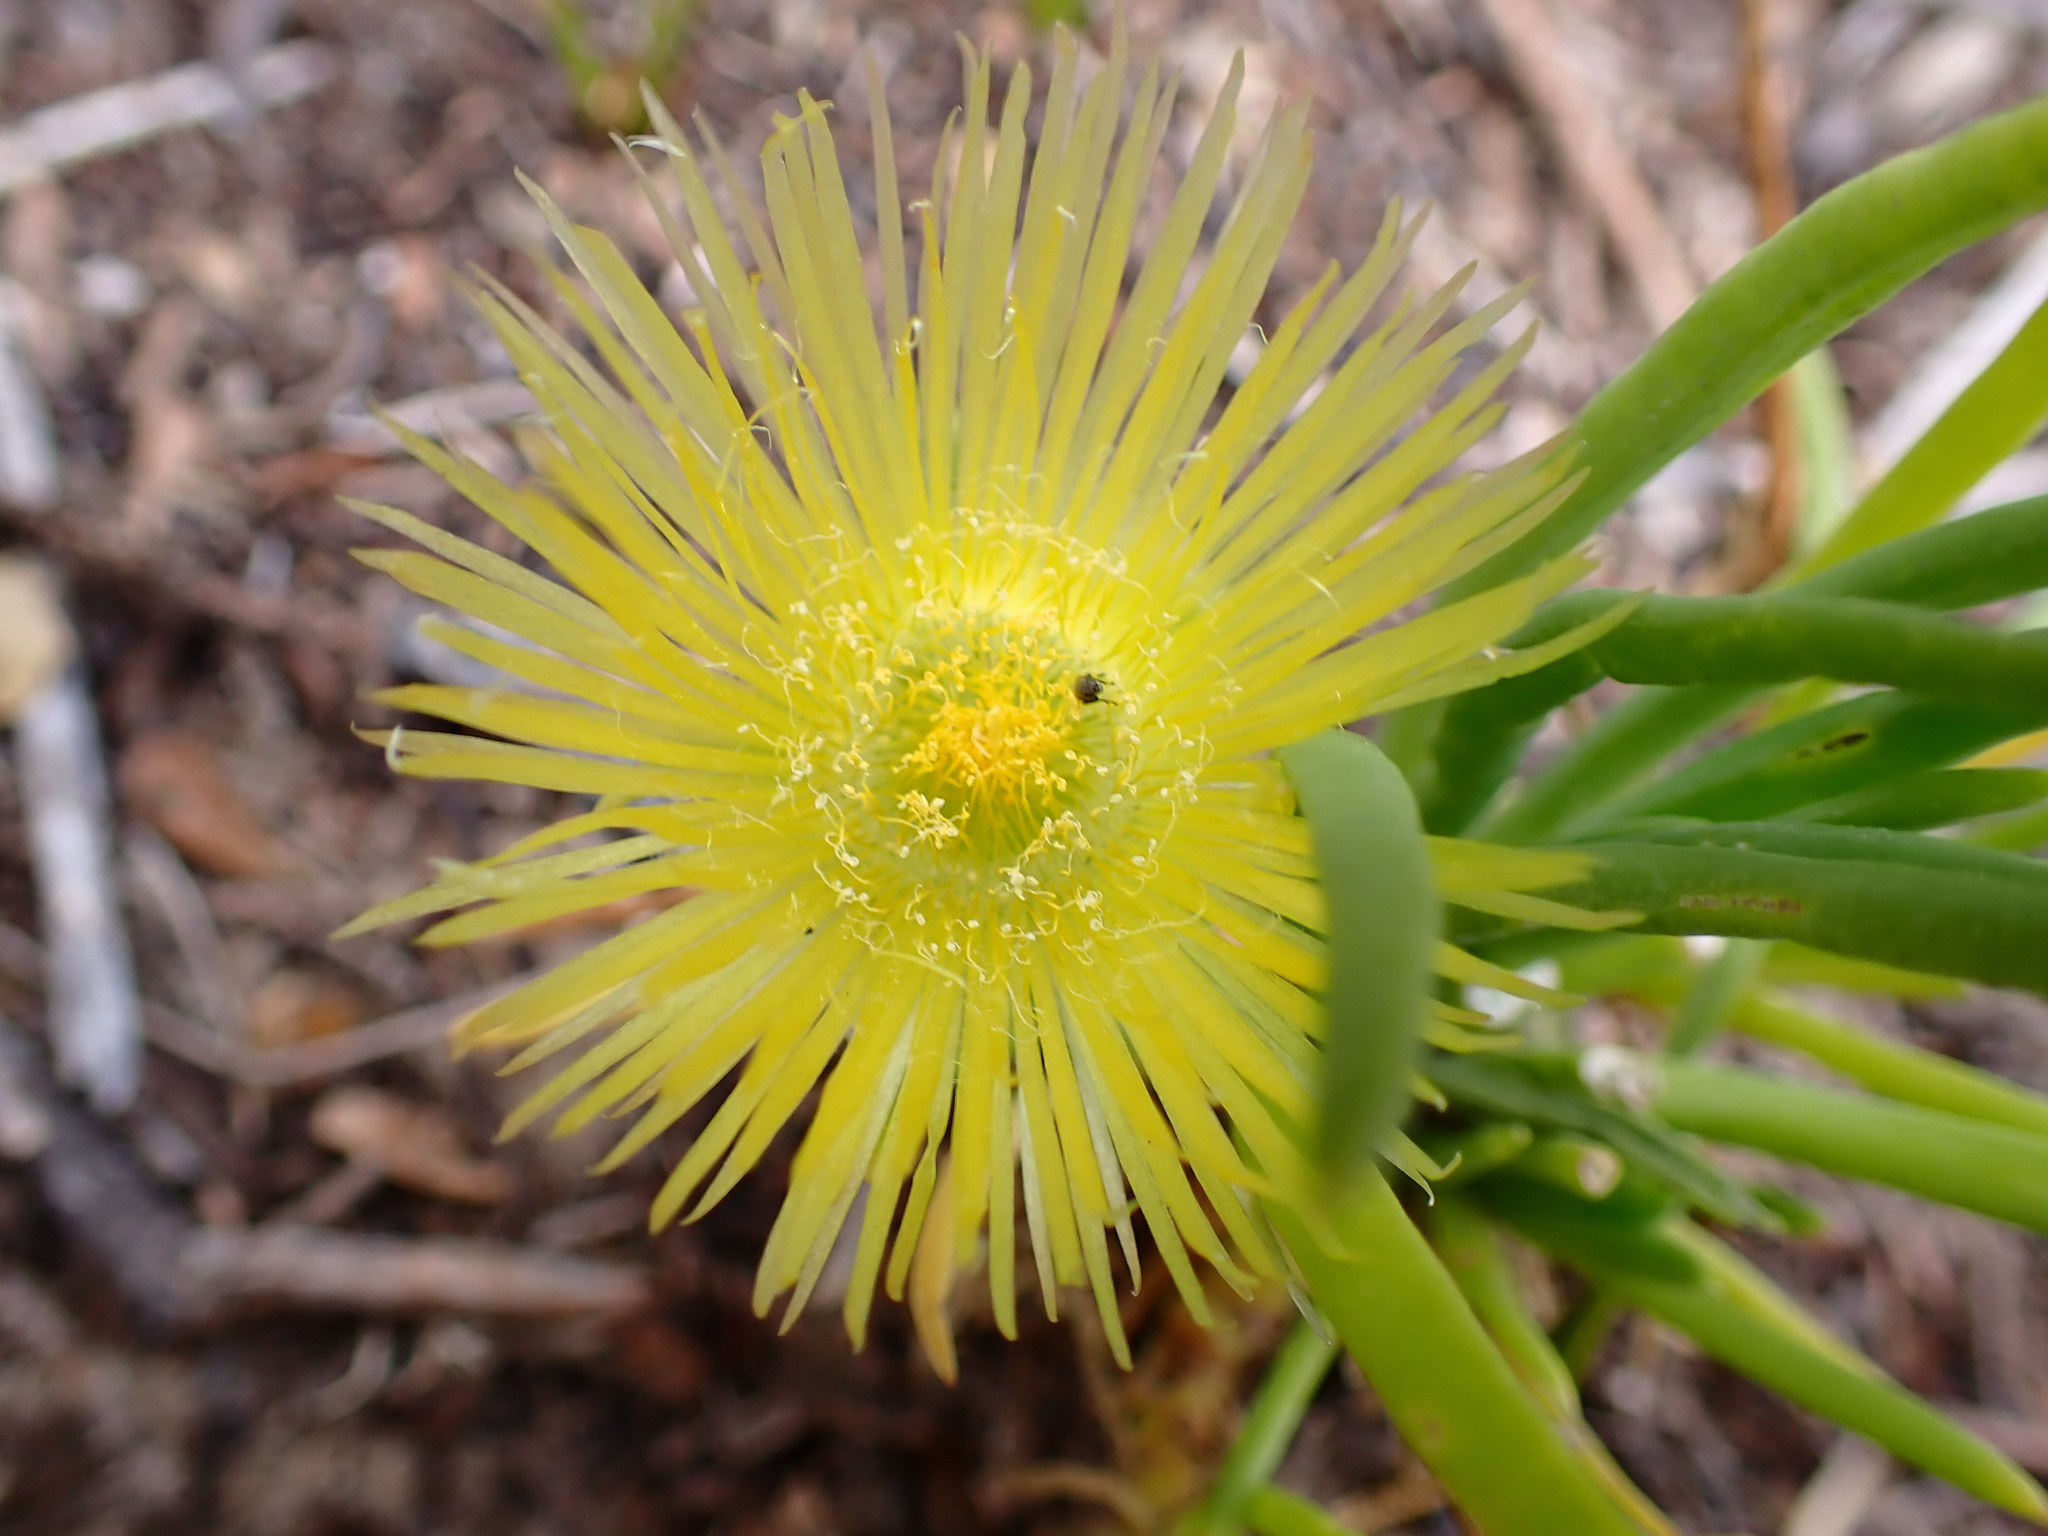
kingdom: Plantae
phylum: Tracheophyta
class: Magnoliopsida
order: Caryophyllales
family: Aizoaceae
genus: Conicosia
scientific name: Conicosia pugioniformis
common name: Narrow-leaved iceplant
